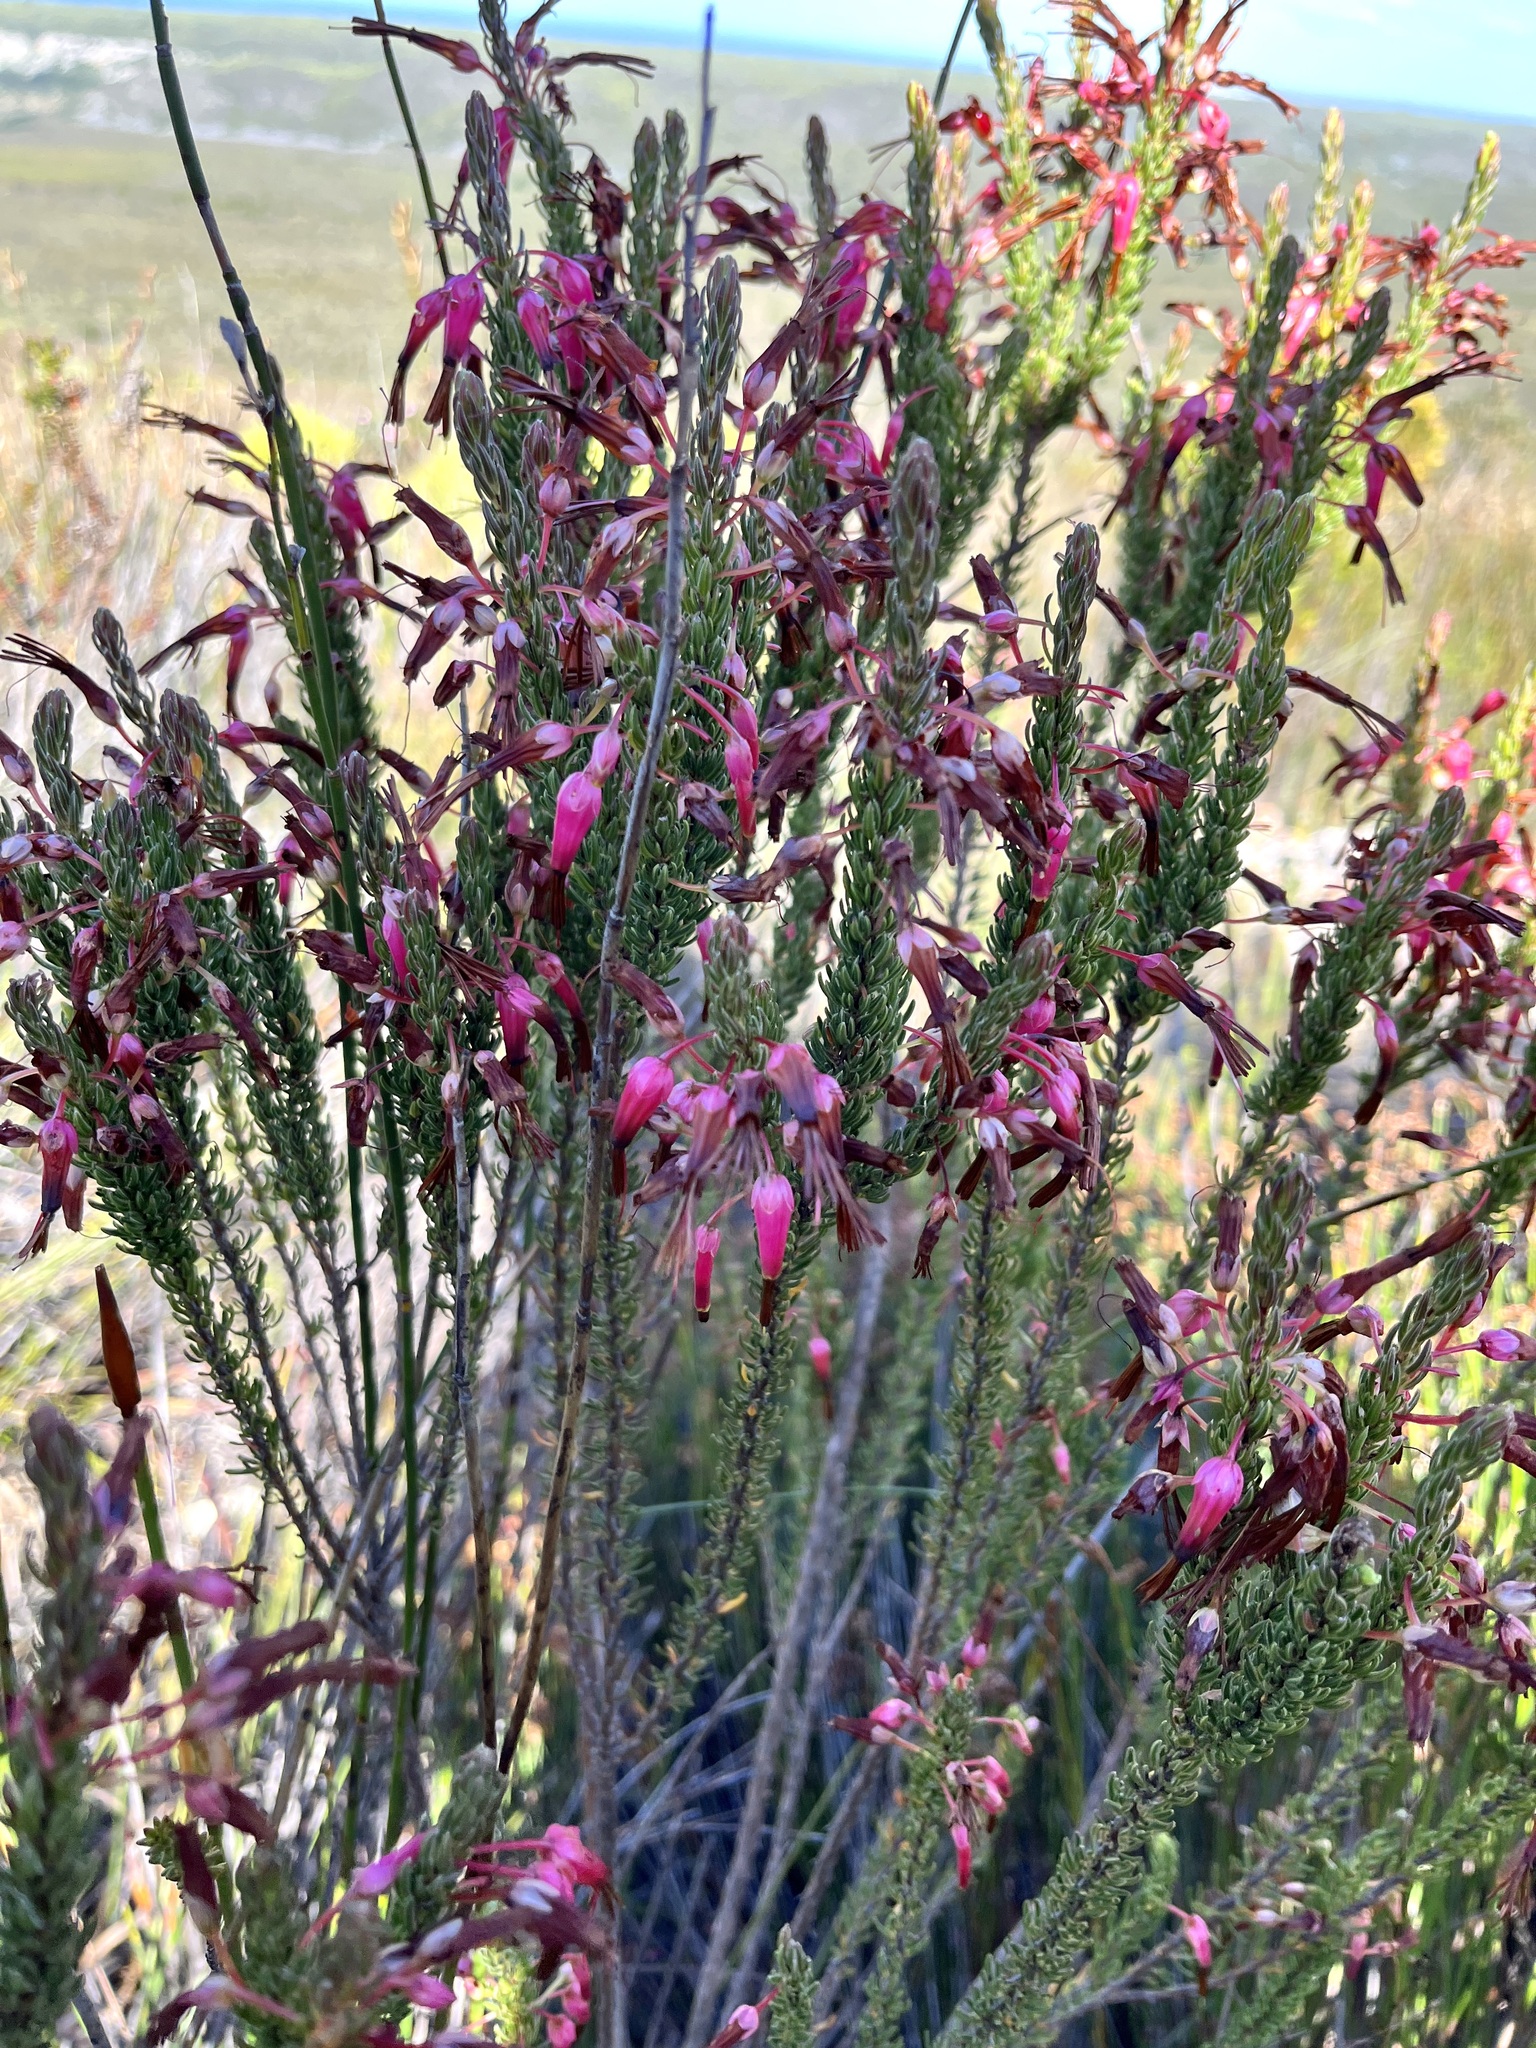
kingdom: Plantae
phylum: Tracheophyta
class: Magnoliopsida
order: Ericales
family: Ericaceae
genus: Erica
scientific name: Erica plukenetii
